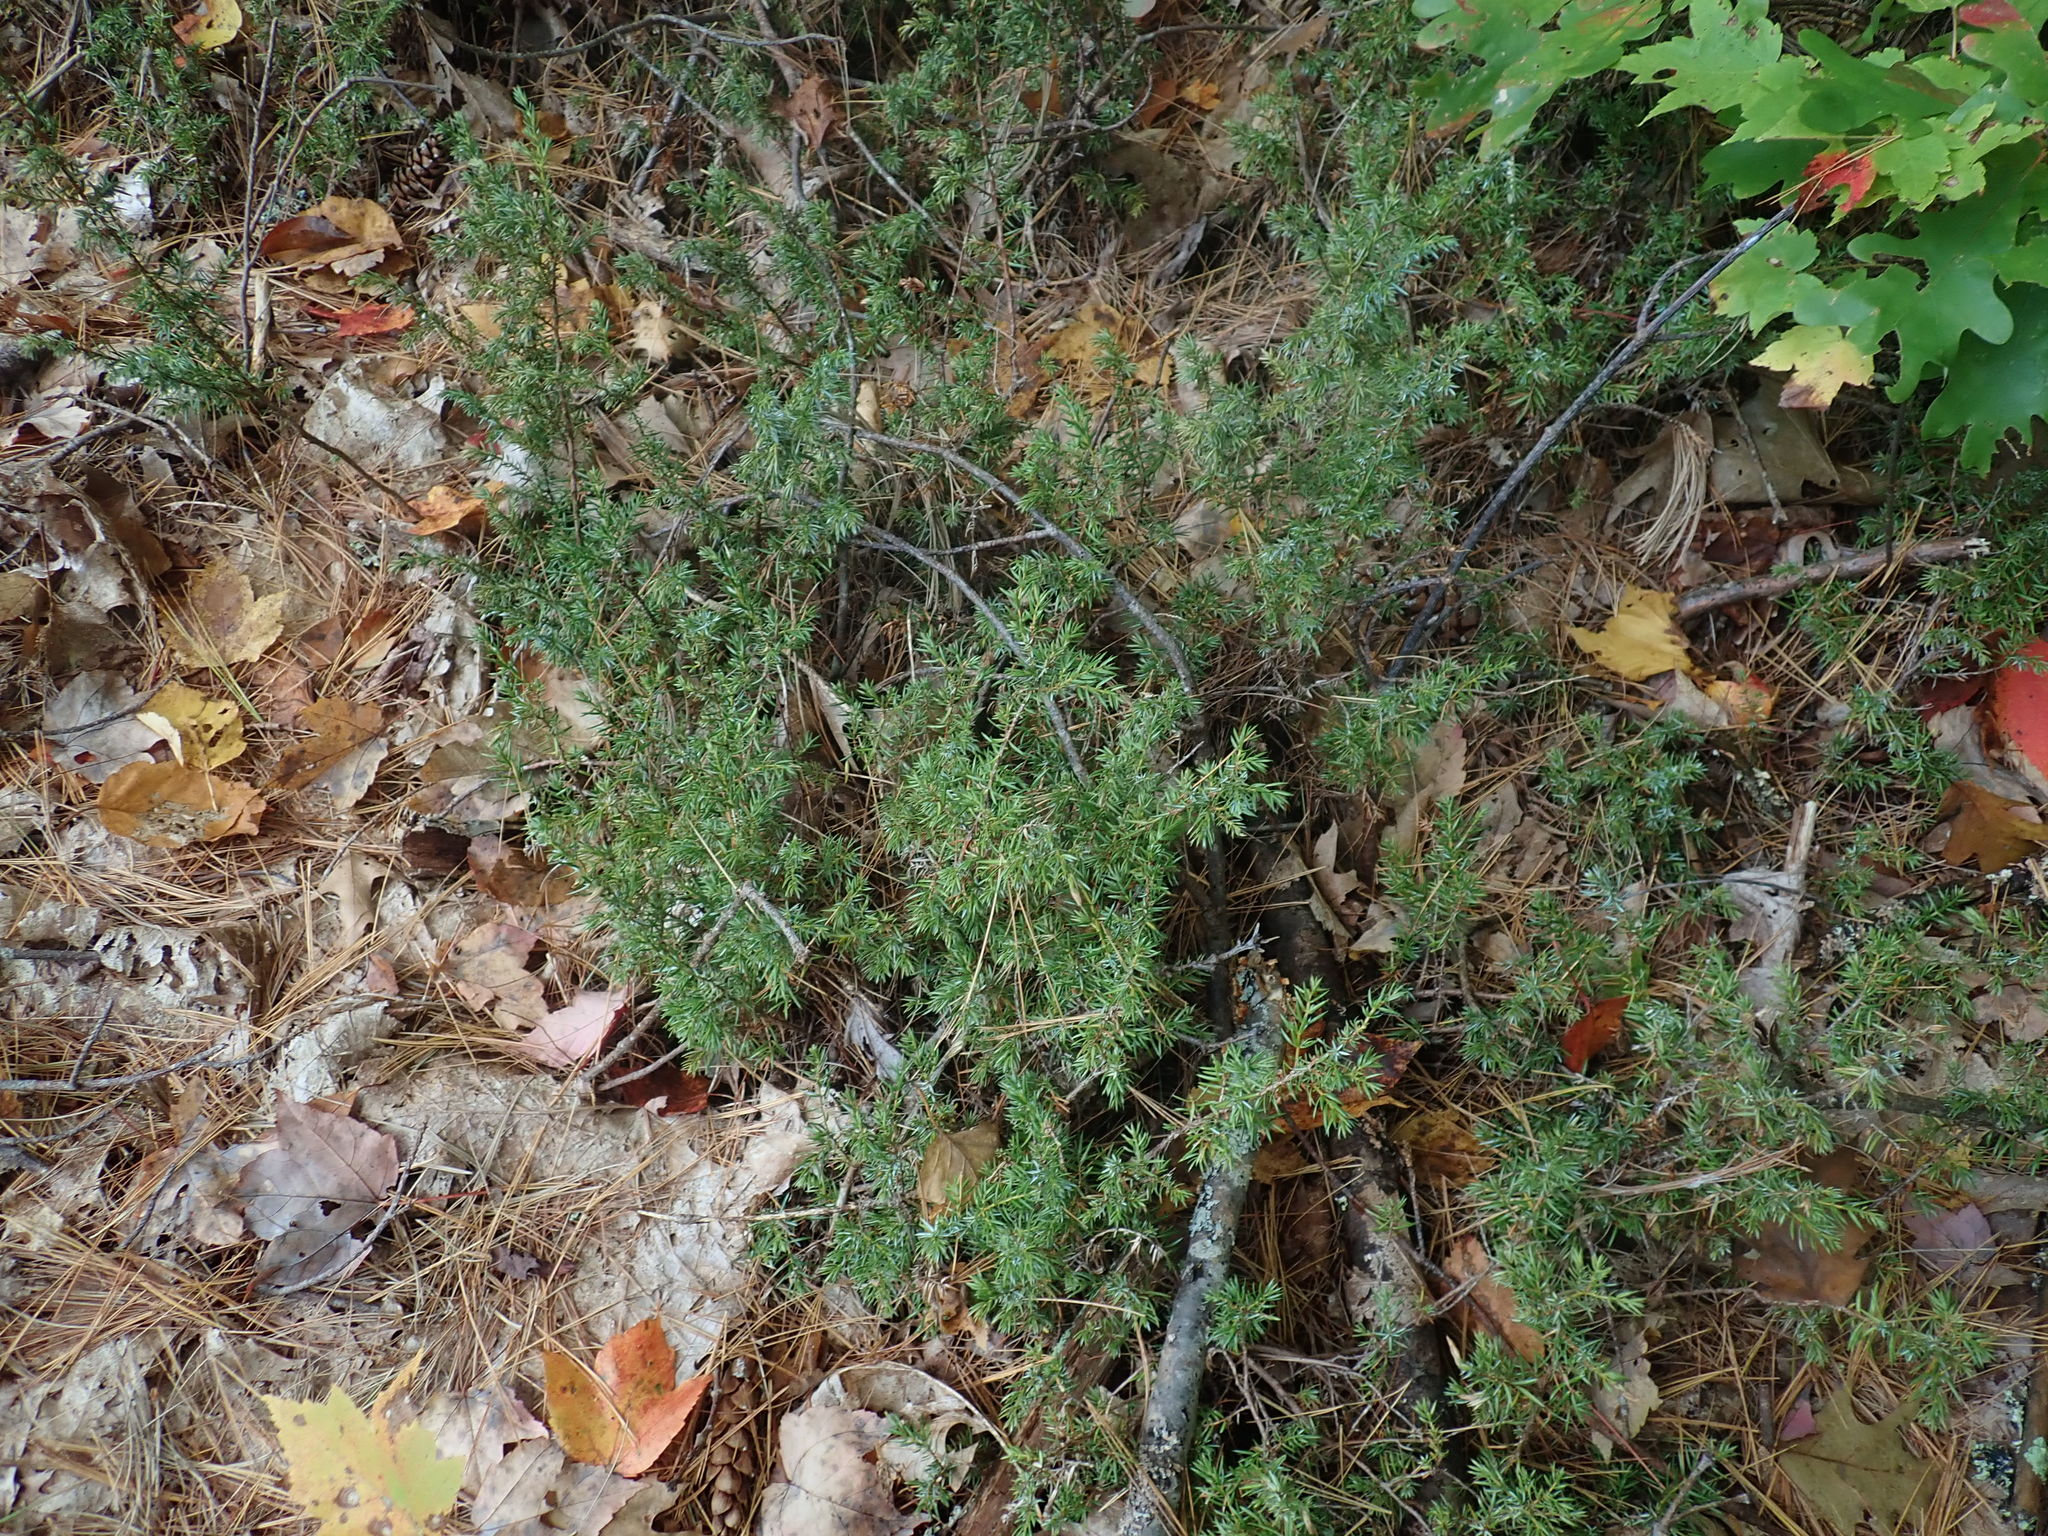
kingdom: Plantae
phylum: Tracheophyta
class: Pinopsida
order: Pinales
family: Cupressaceae
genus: Juniperus
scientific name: Juniperus communis
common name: Common juniper
